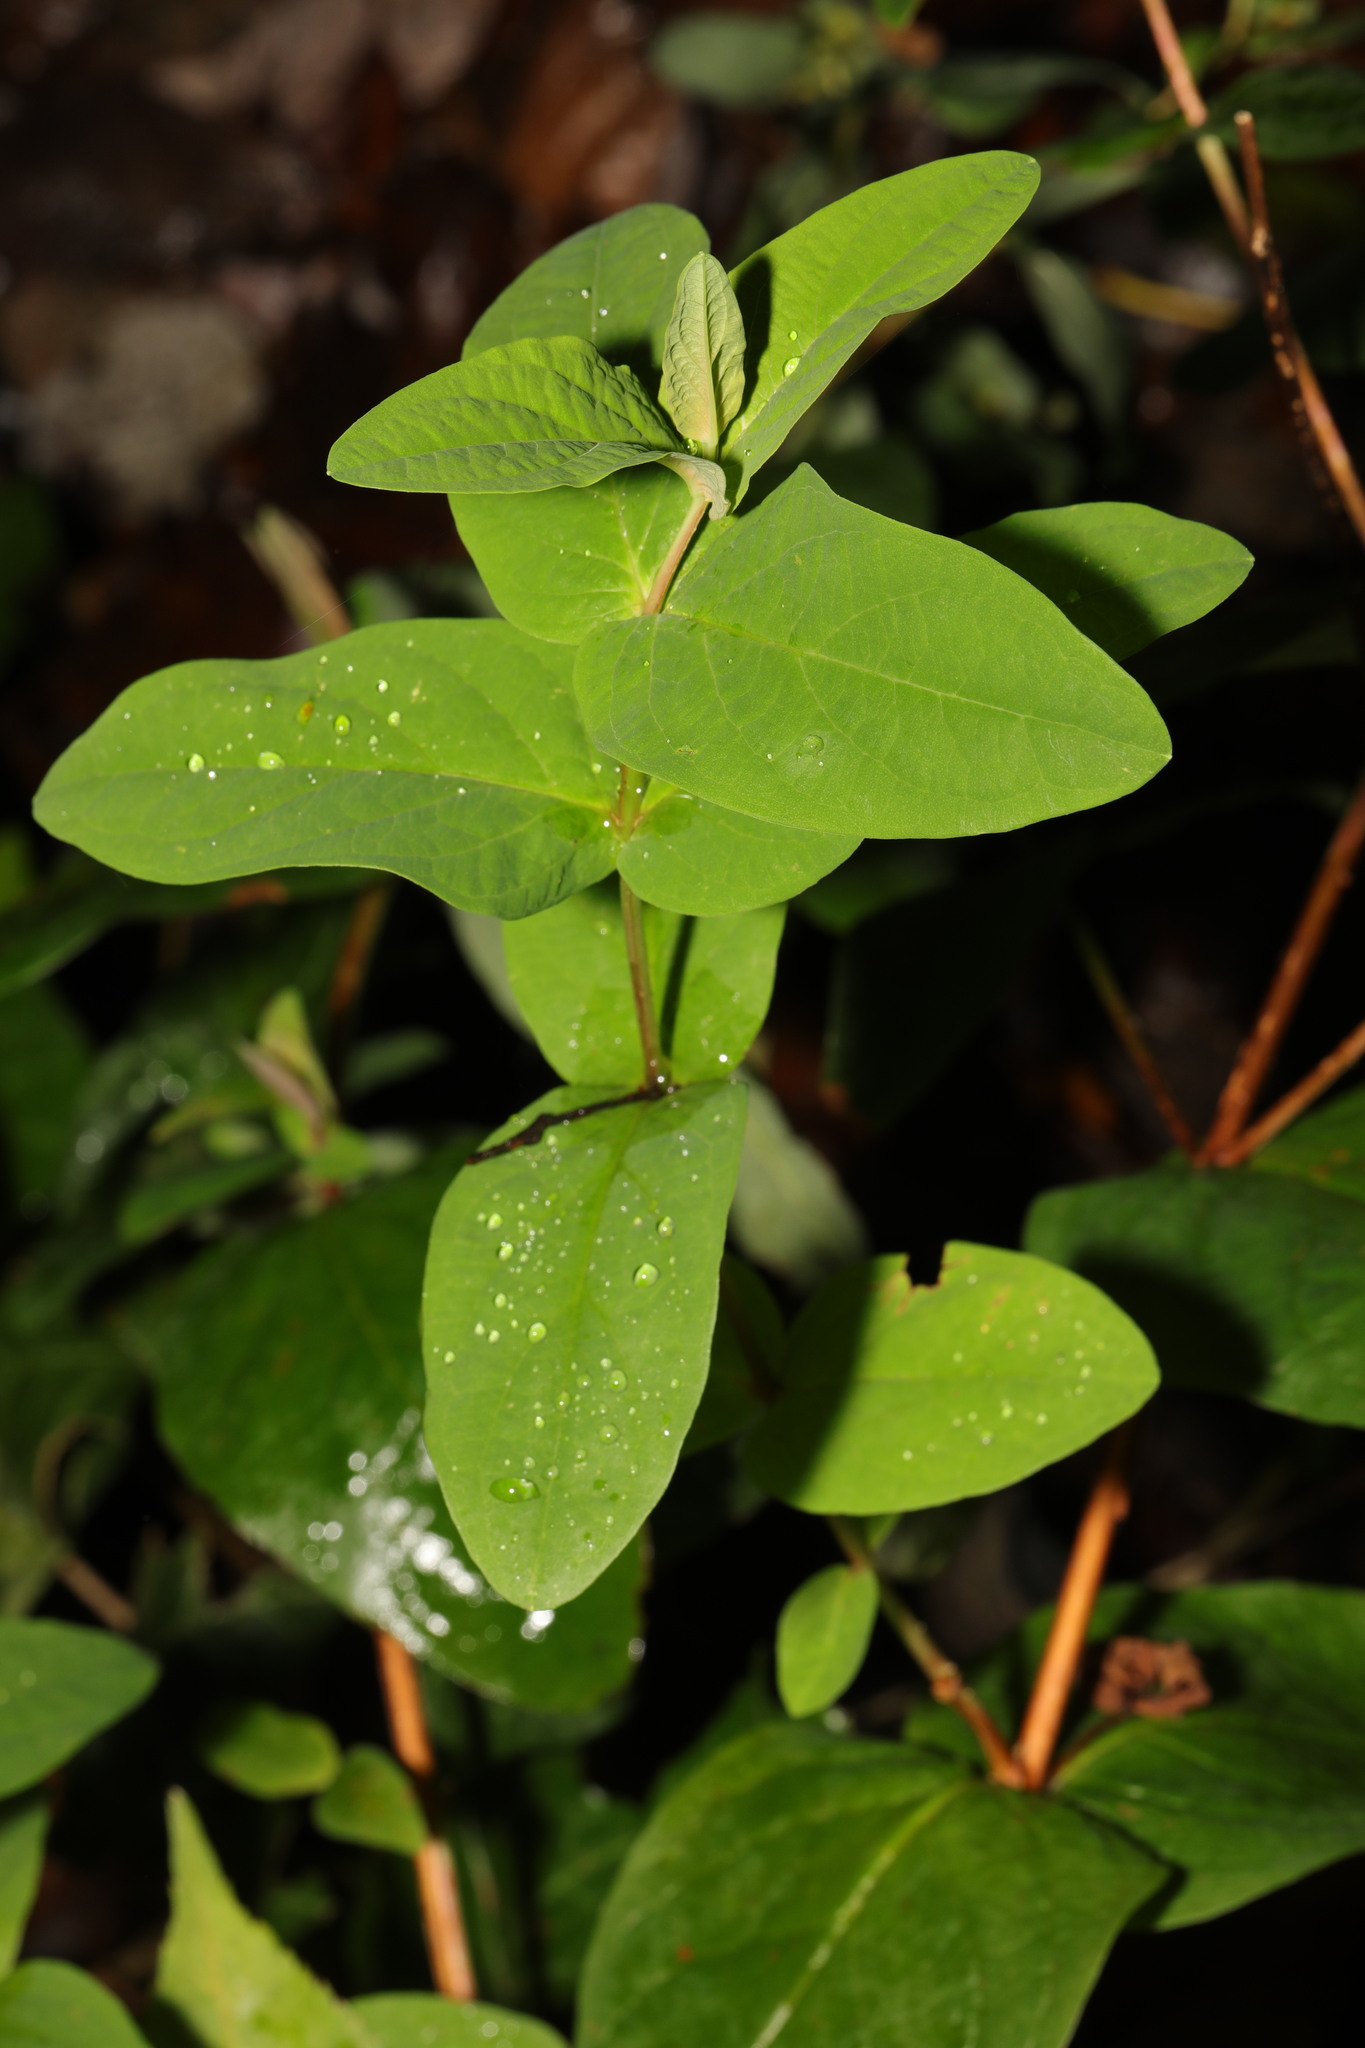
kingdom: Plantae
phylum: Tracheophyta
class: Magnoliopsida
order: Malpighiales
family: Hypericaceae
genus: Hypericum
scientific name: Hypericum androsaemum
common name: Sweet-amber
